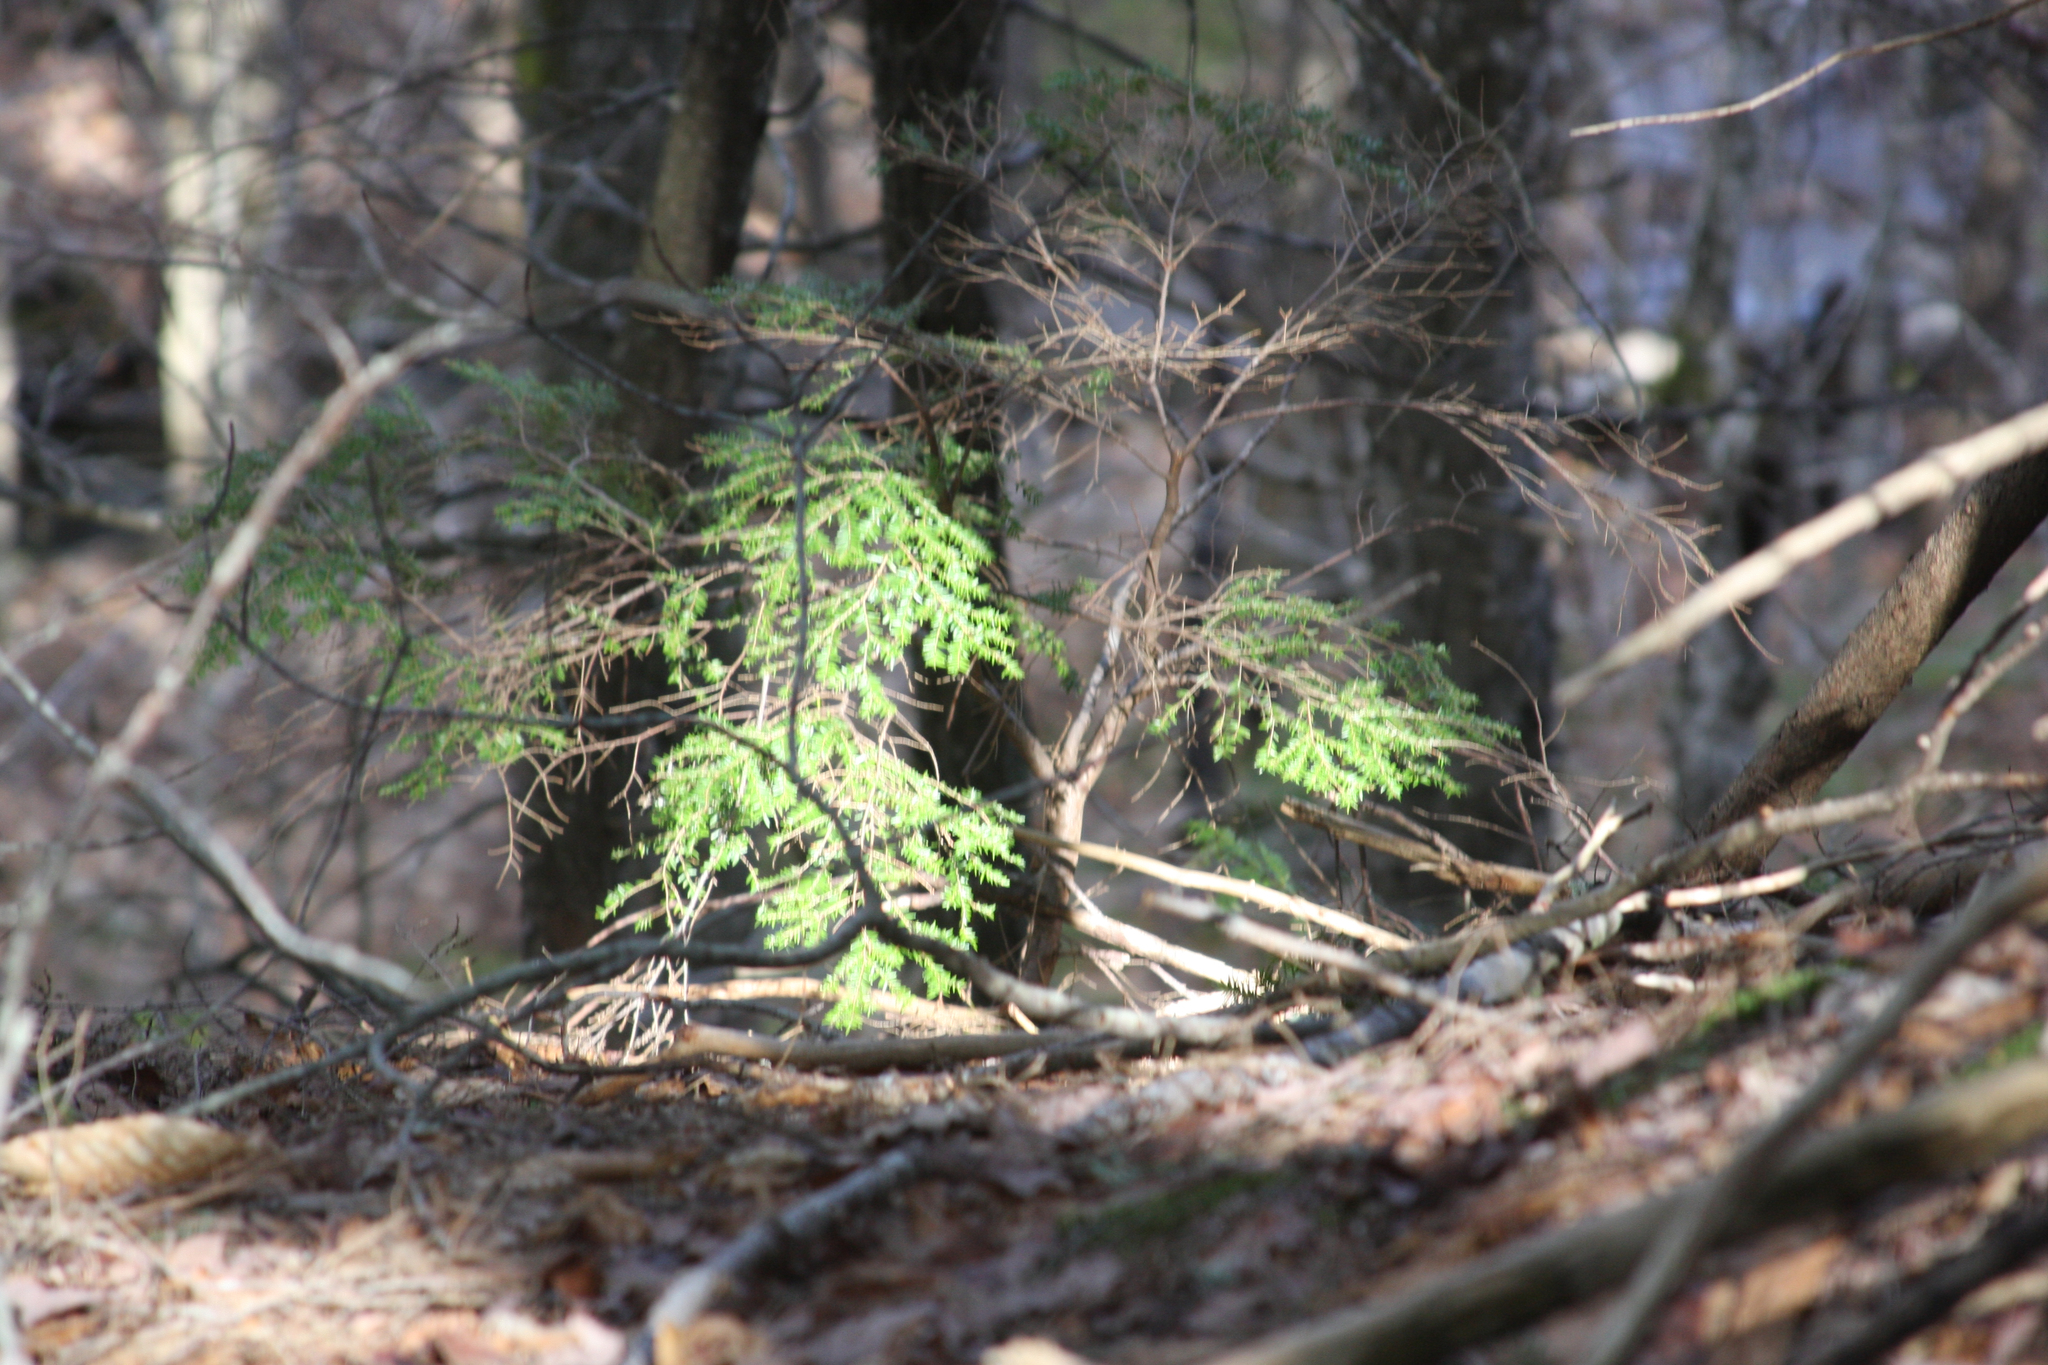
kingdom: Plantae
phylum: Tracheophyta
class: Pinopsida
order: Pinales
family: Pinaceae
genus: Tsuga
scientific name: Tsuga canadensis
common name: Eastern hemlock
